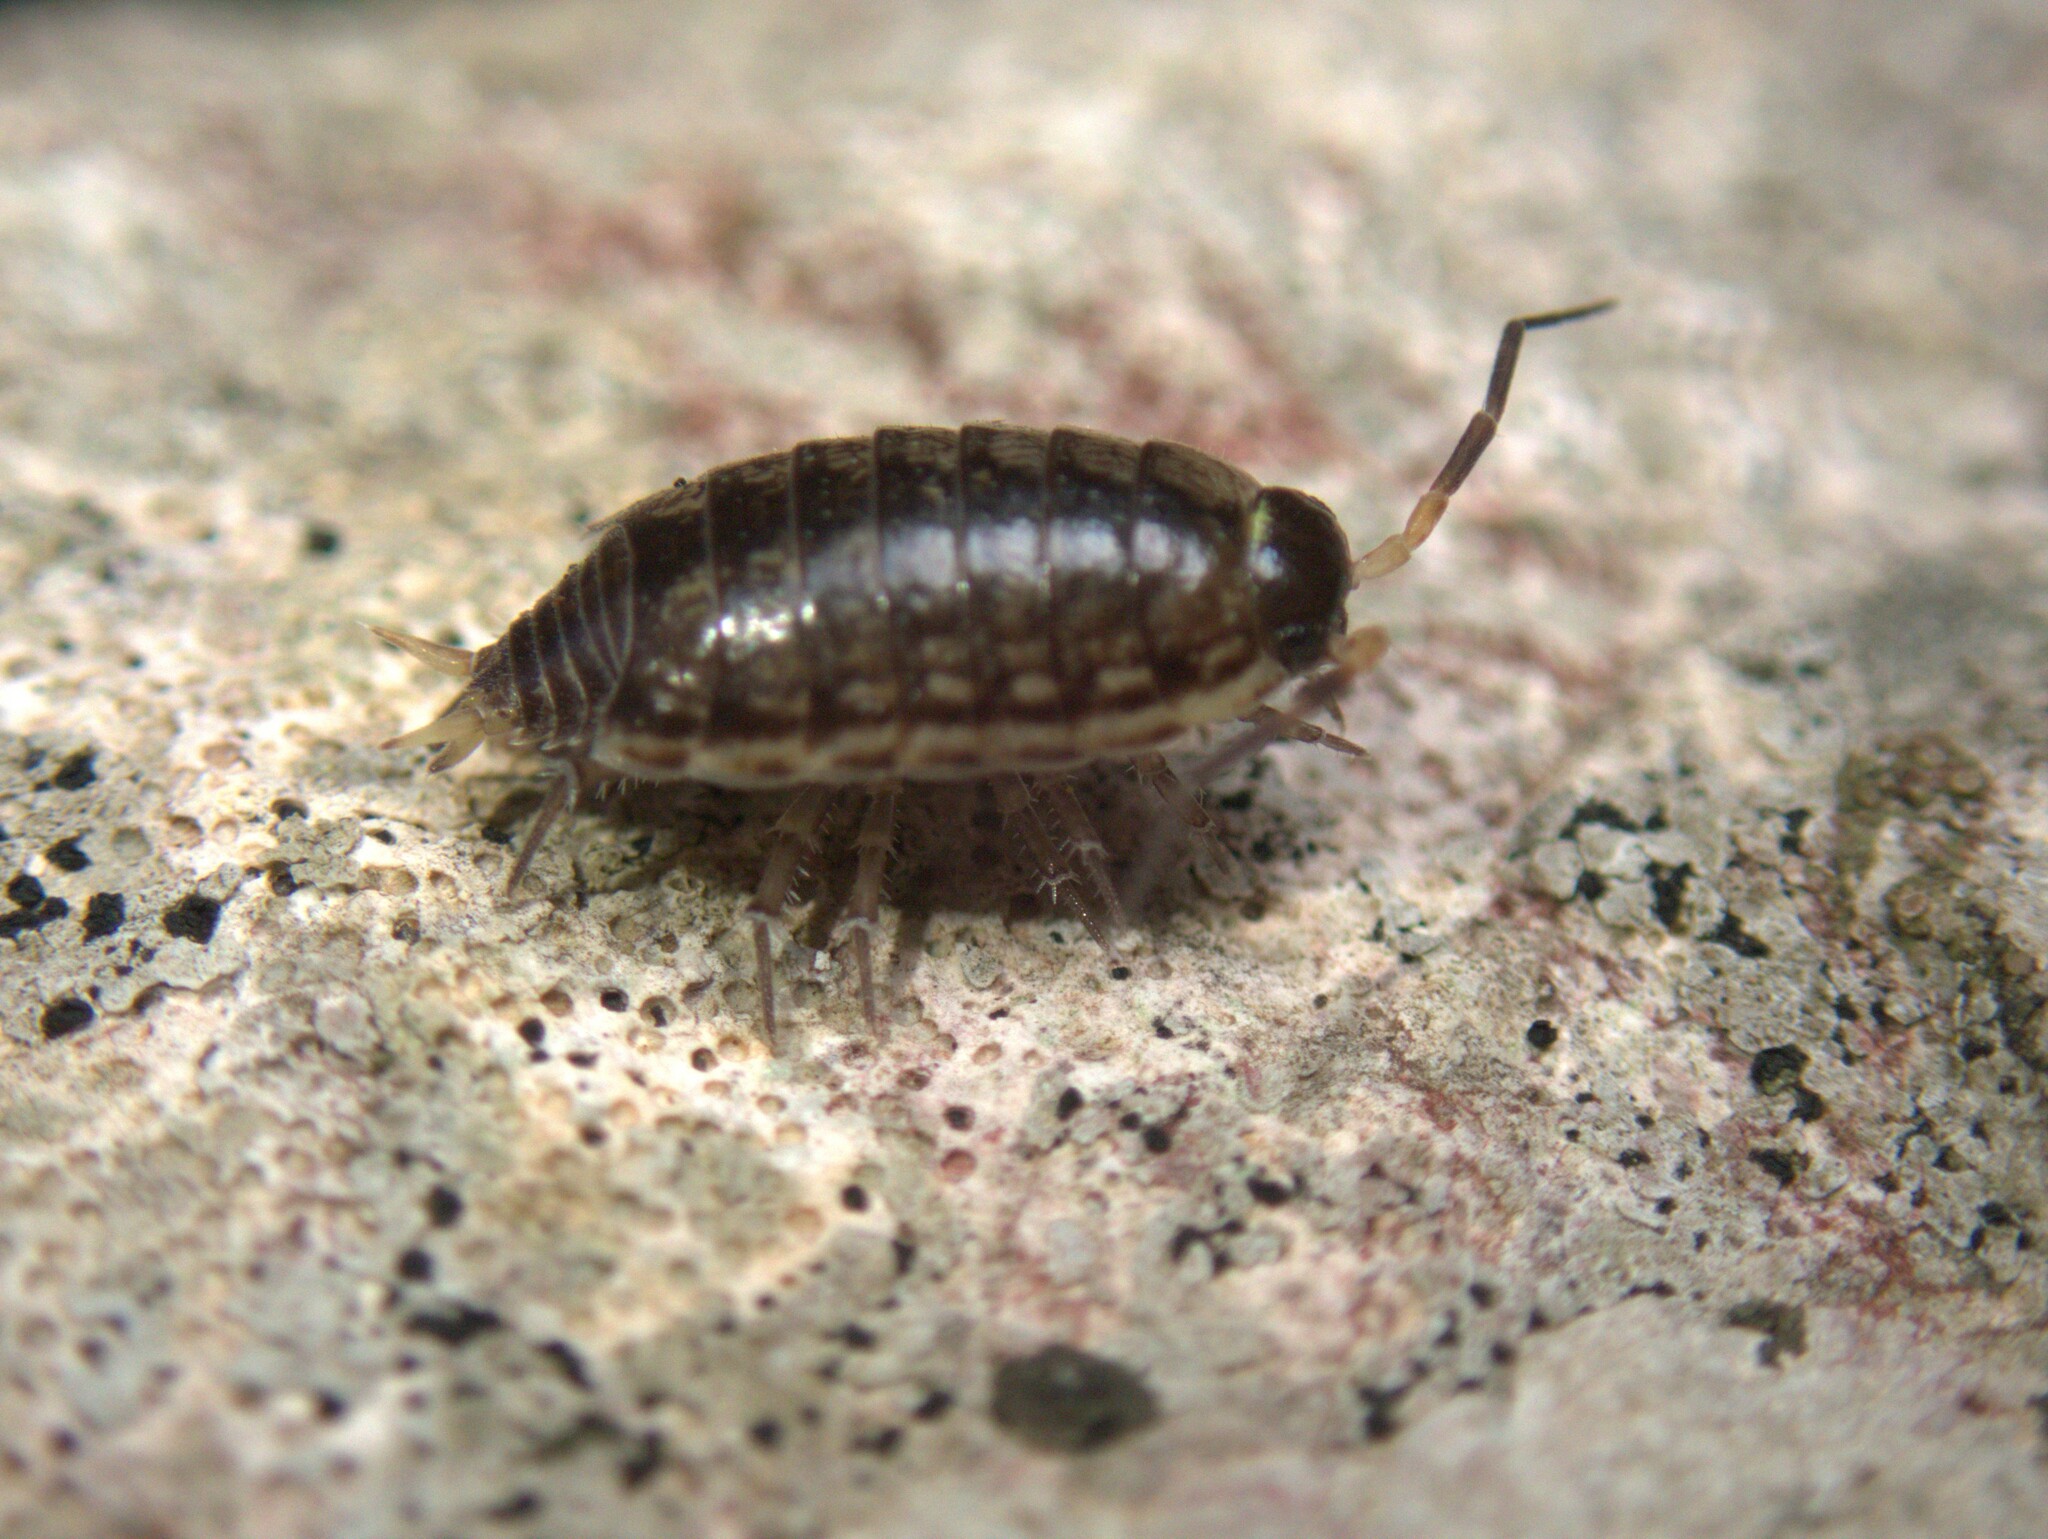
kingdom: Animalia
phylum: Arthropoda
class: Malacostraca
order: Isopoda
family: Philosciidae
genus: Philoscia
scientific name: Philoscia muscorum
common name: Common striped woodlouse
